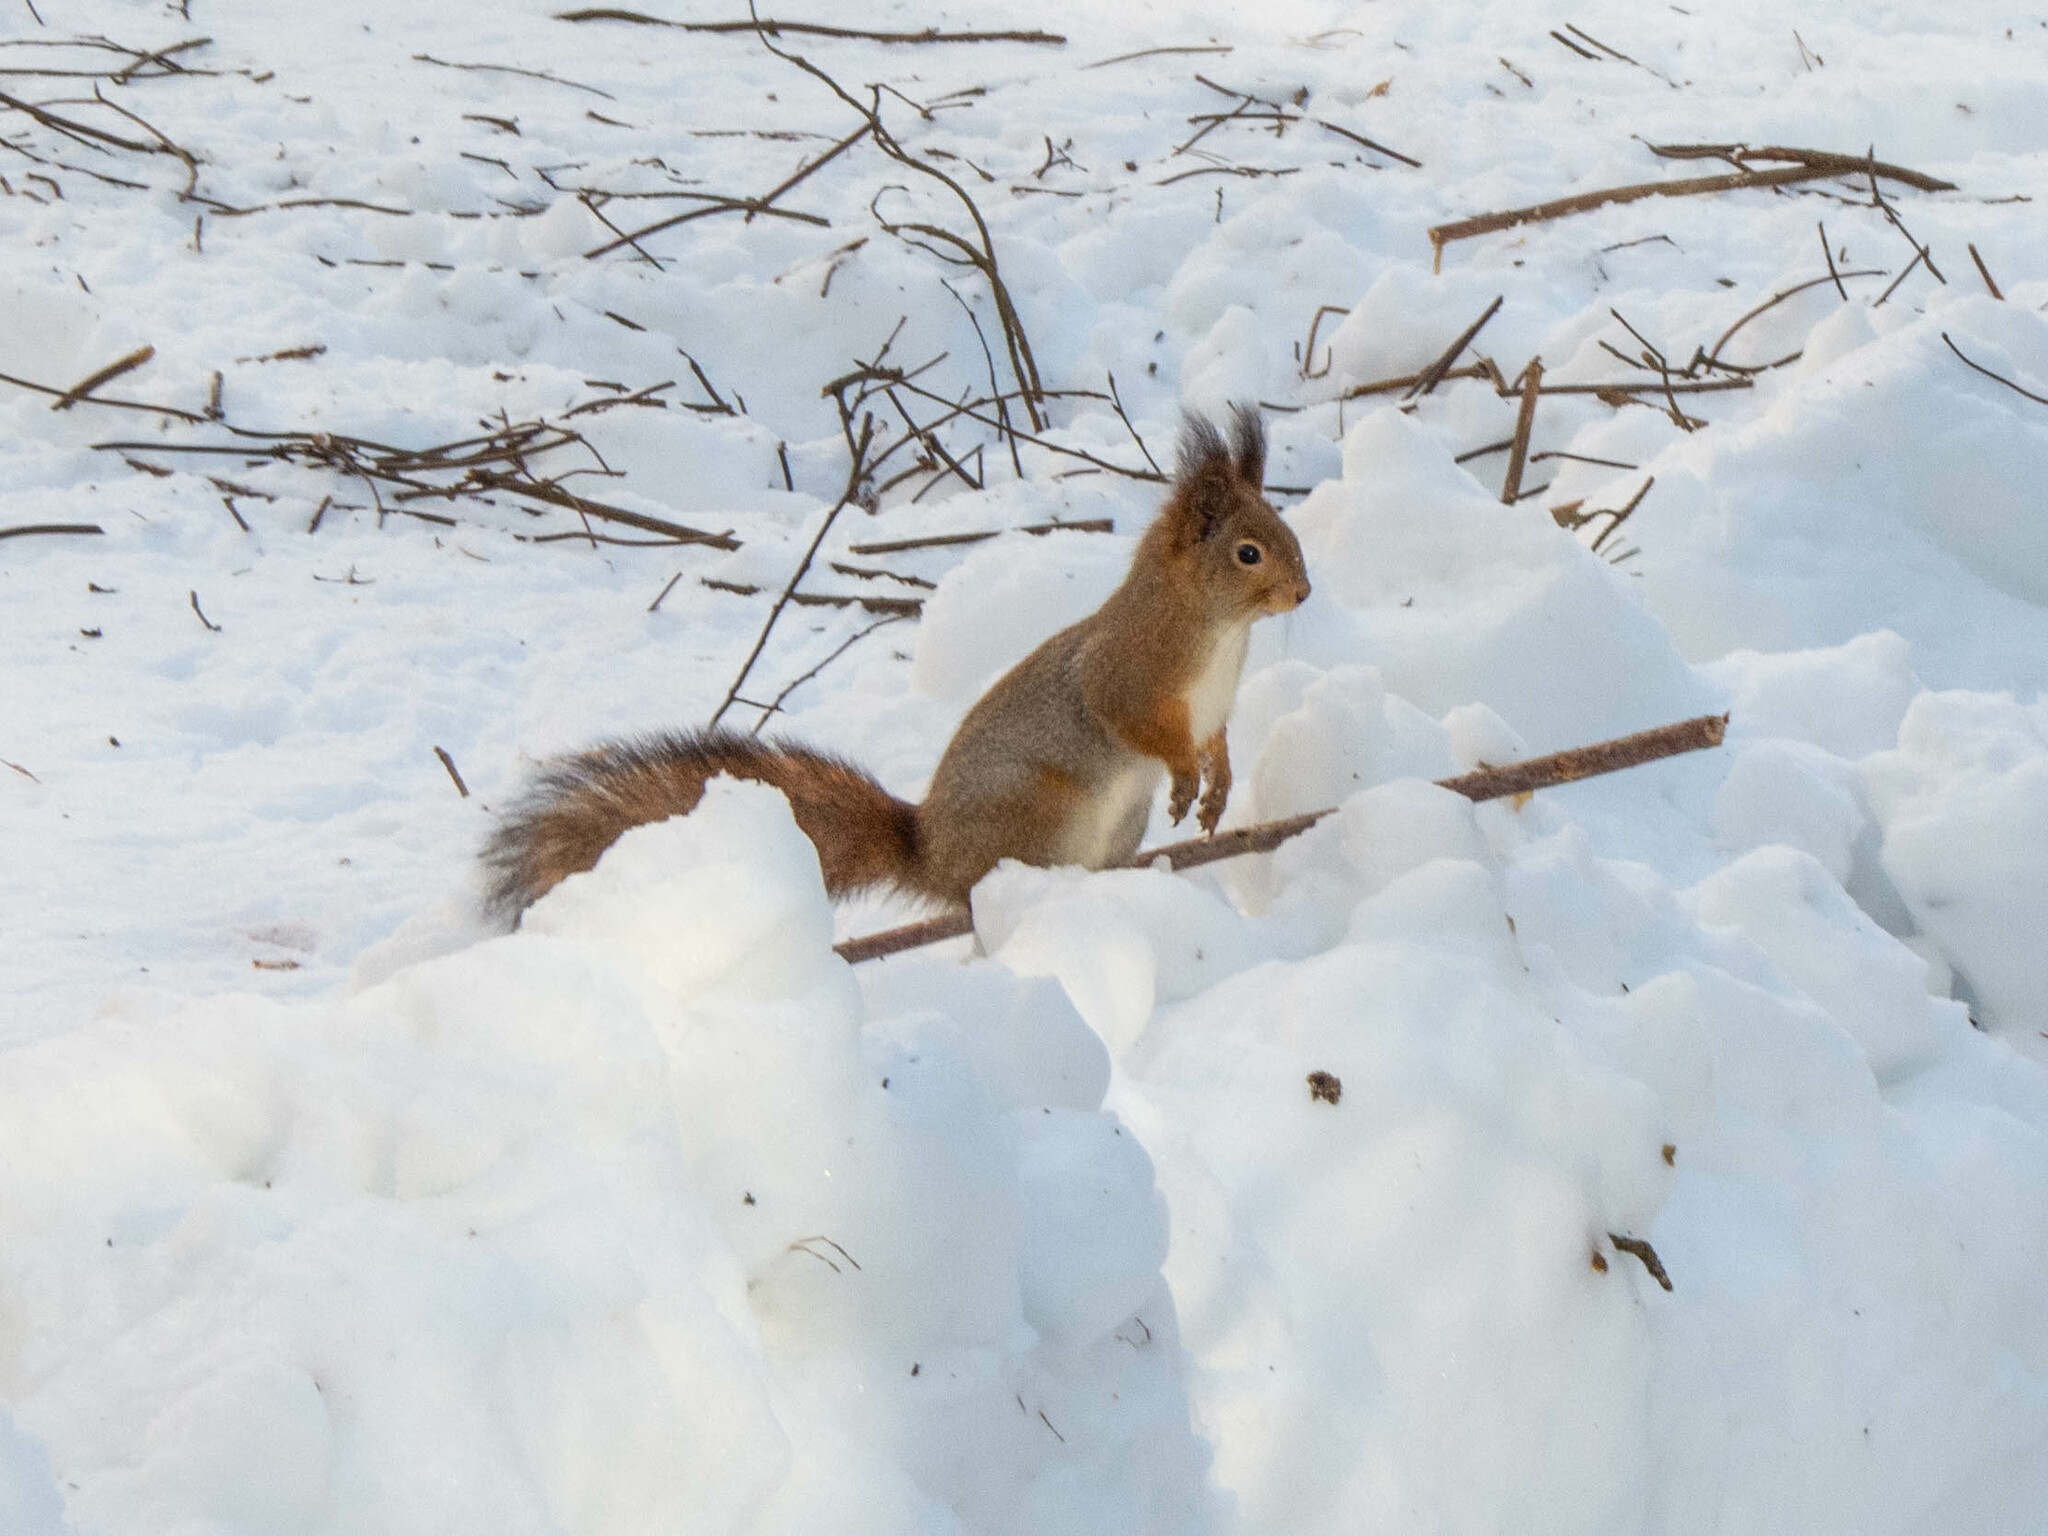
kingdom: Animalia
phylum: Chordata
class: Mammalia
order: Rodentia
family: Sciuridae
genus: Sciurus
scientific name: Sciurus vulgaris
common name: Eurasian red squirrel
